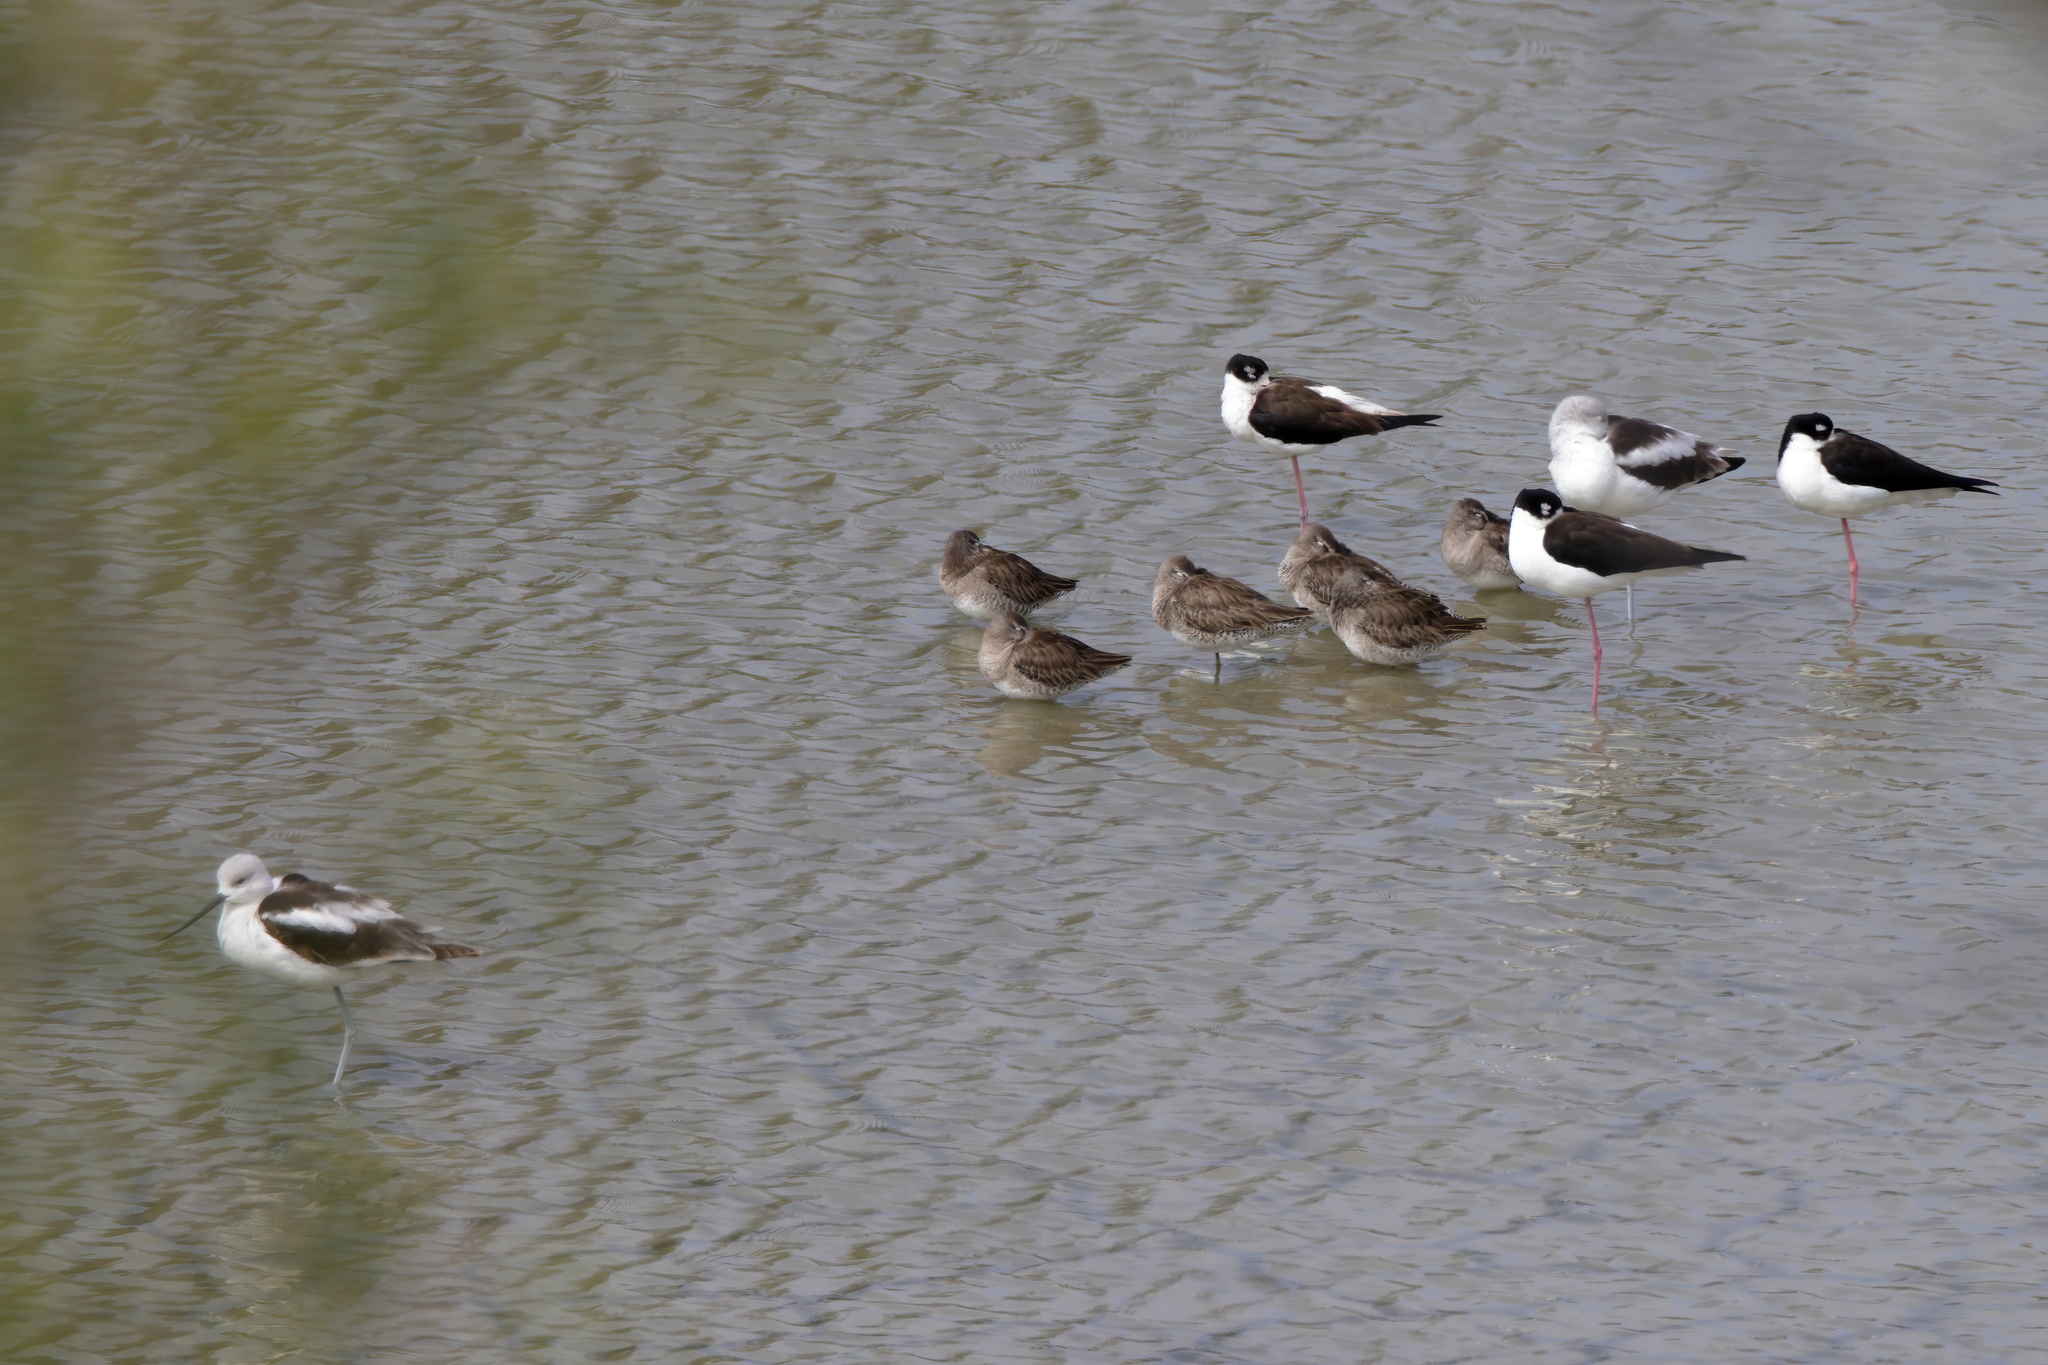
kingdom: Animalia
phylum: Chordata
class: Aves
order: Charadriiformes
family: Recurvirostridae
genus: Himantopus
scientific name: Himantopus mexicanus
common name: Black-necked stilt
